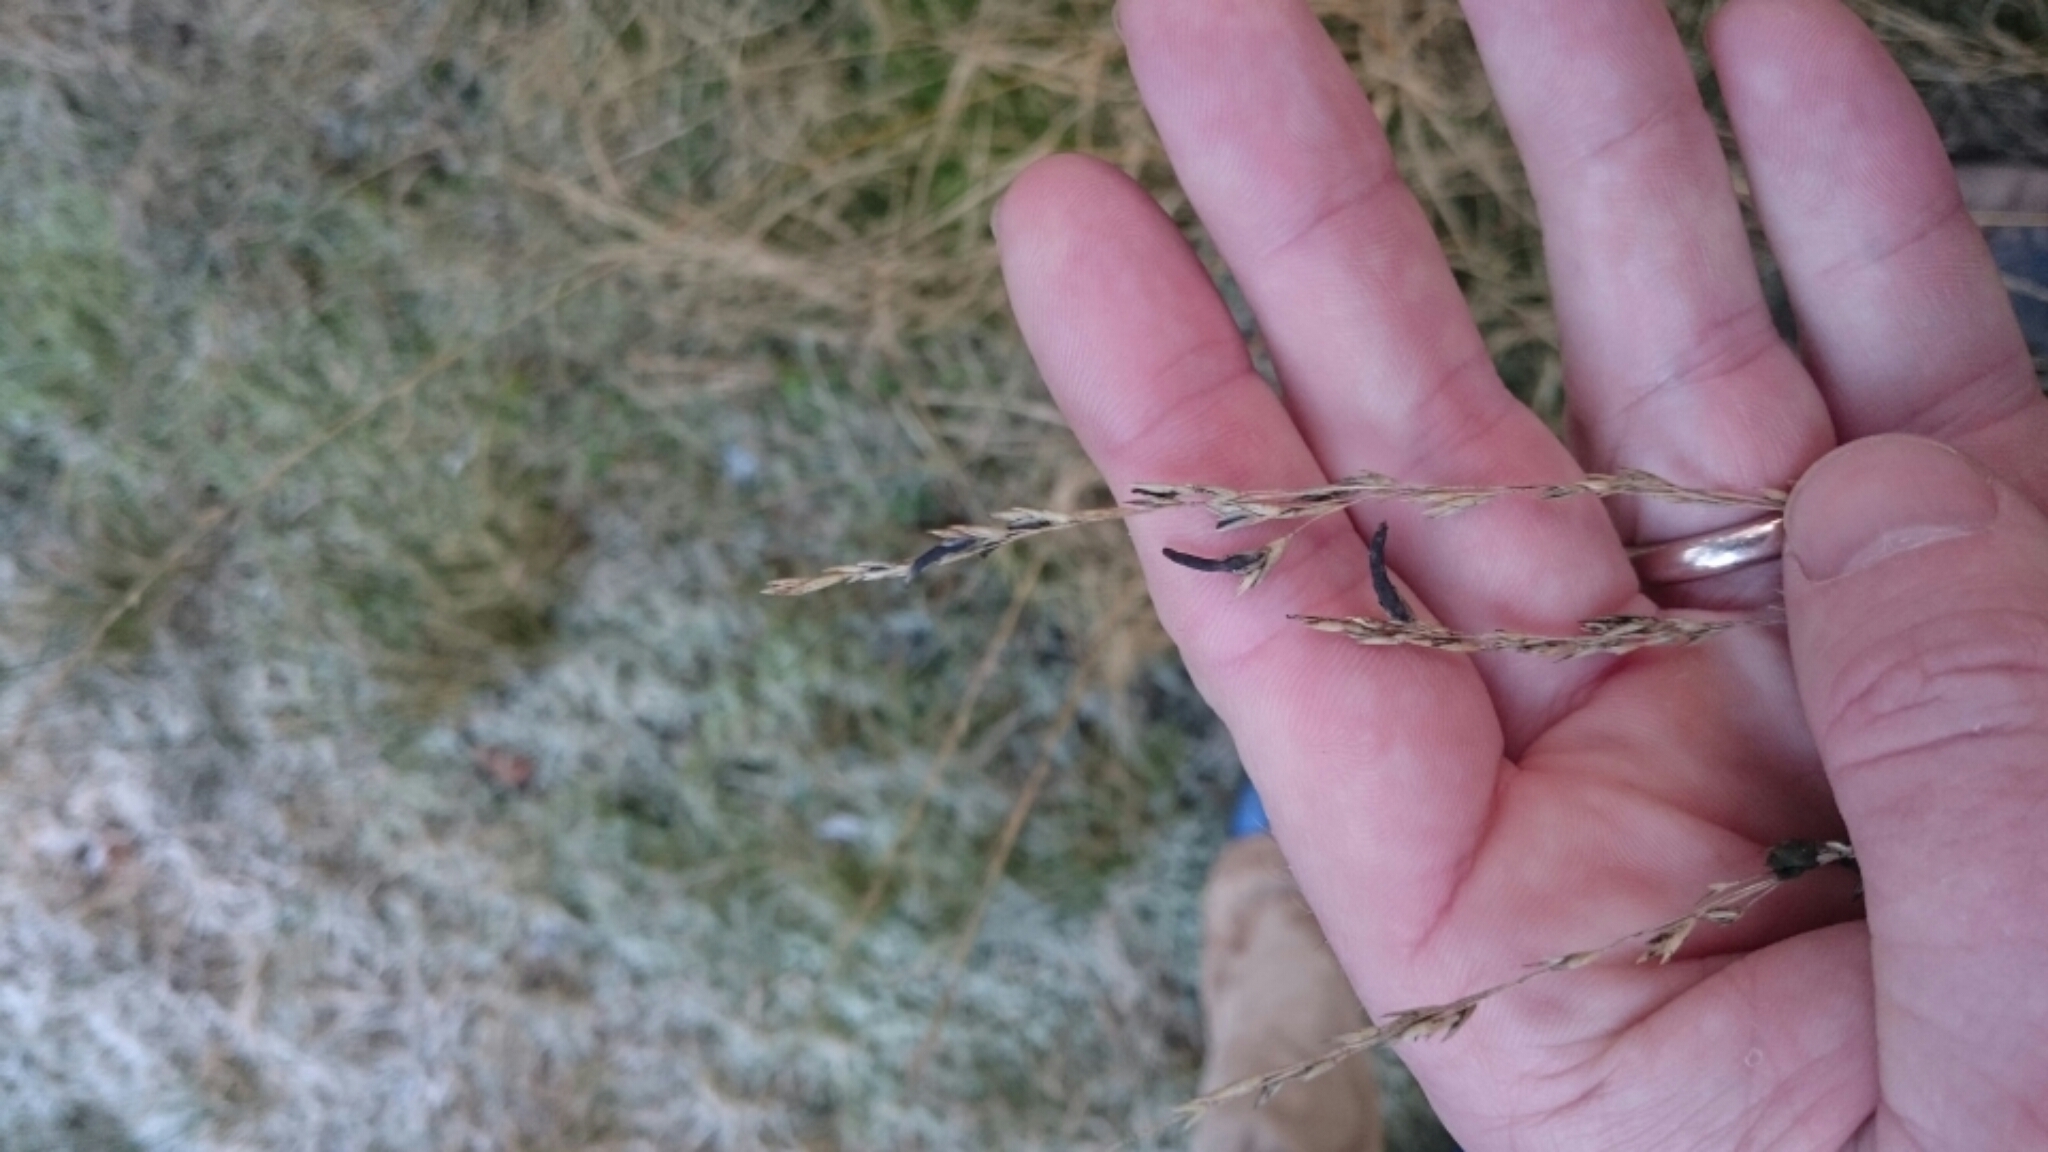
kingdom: Fungi
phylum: Ascomycota
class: Sordariomycetes
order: Hypocreales
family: Clavicipitaceae
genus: Claviceps
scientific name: Claviceps purpurea
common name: Rye ergot
